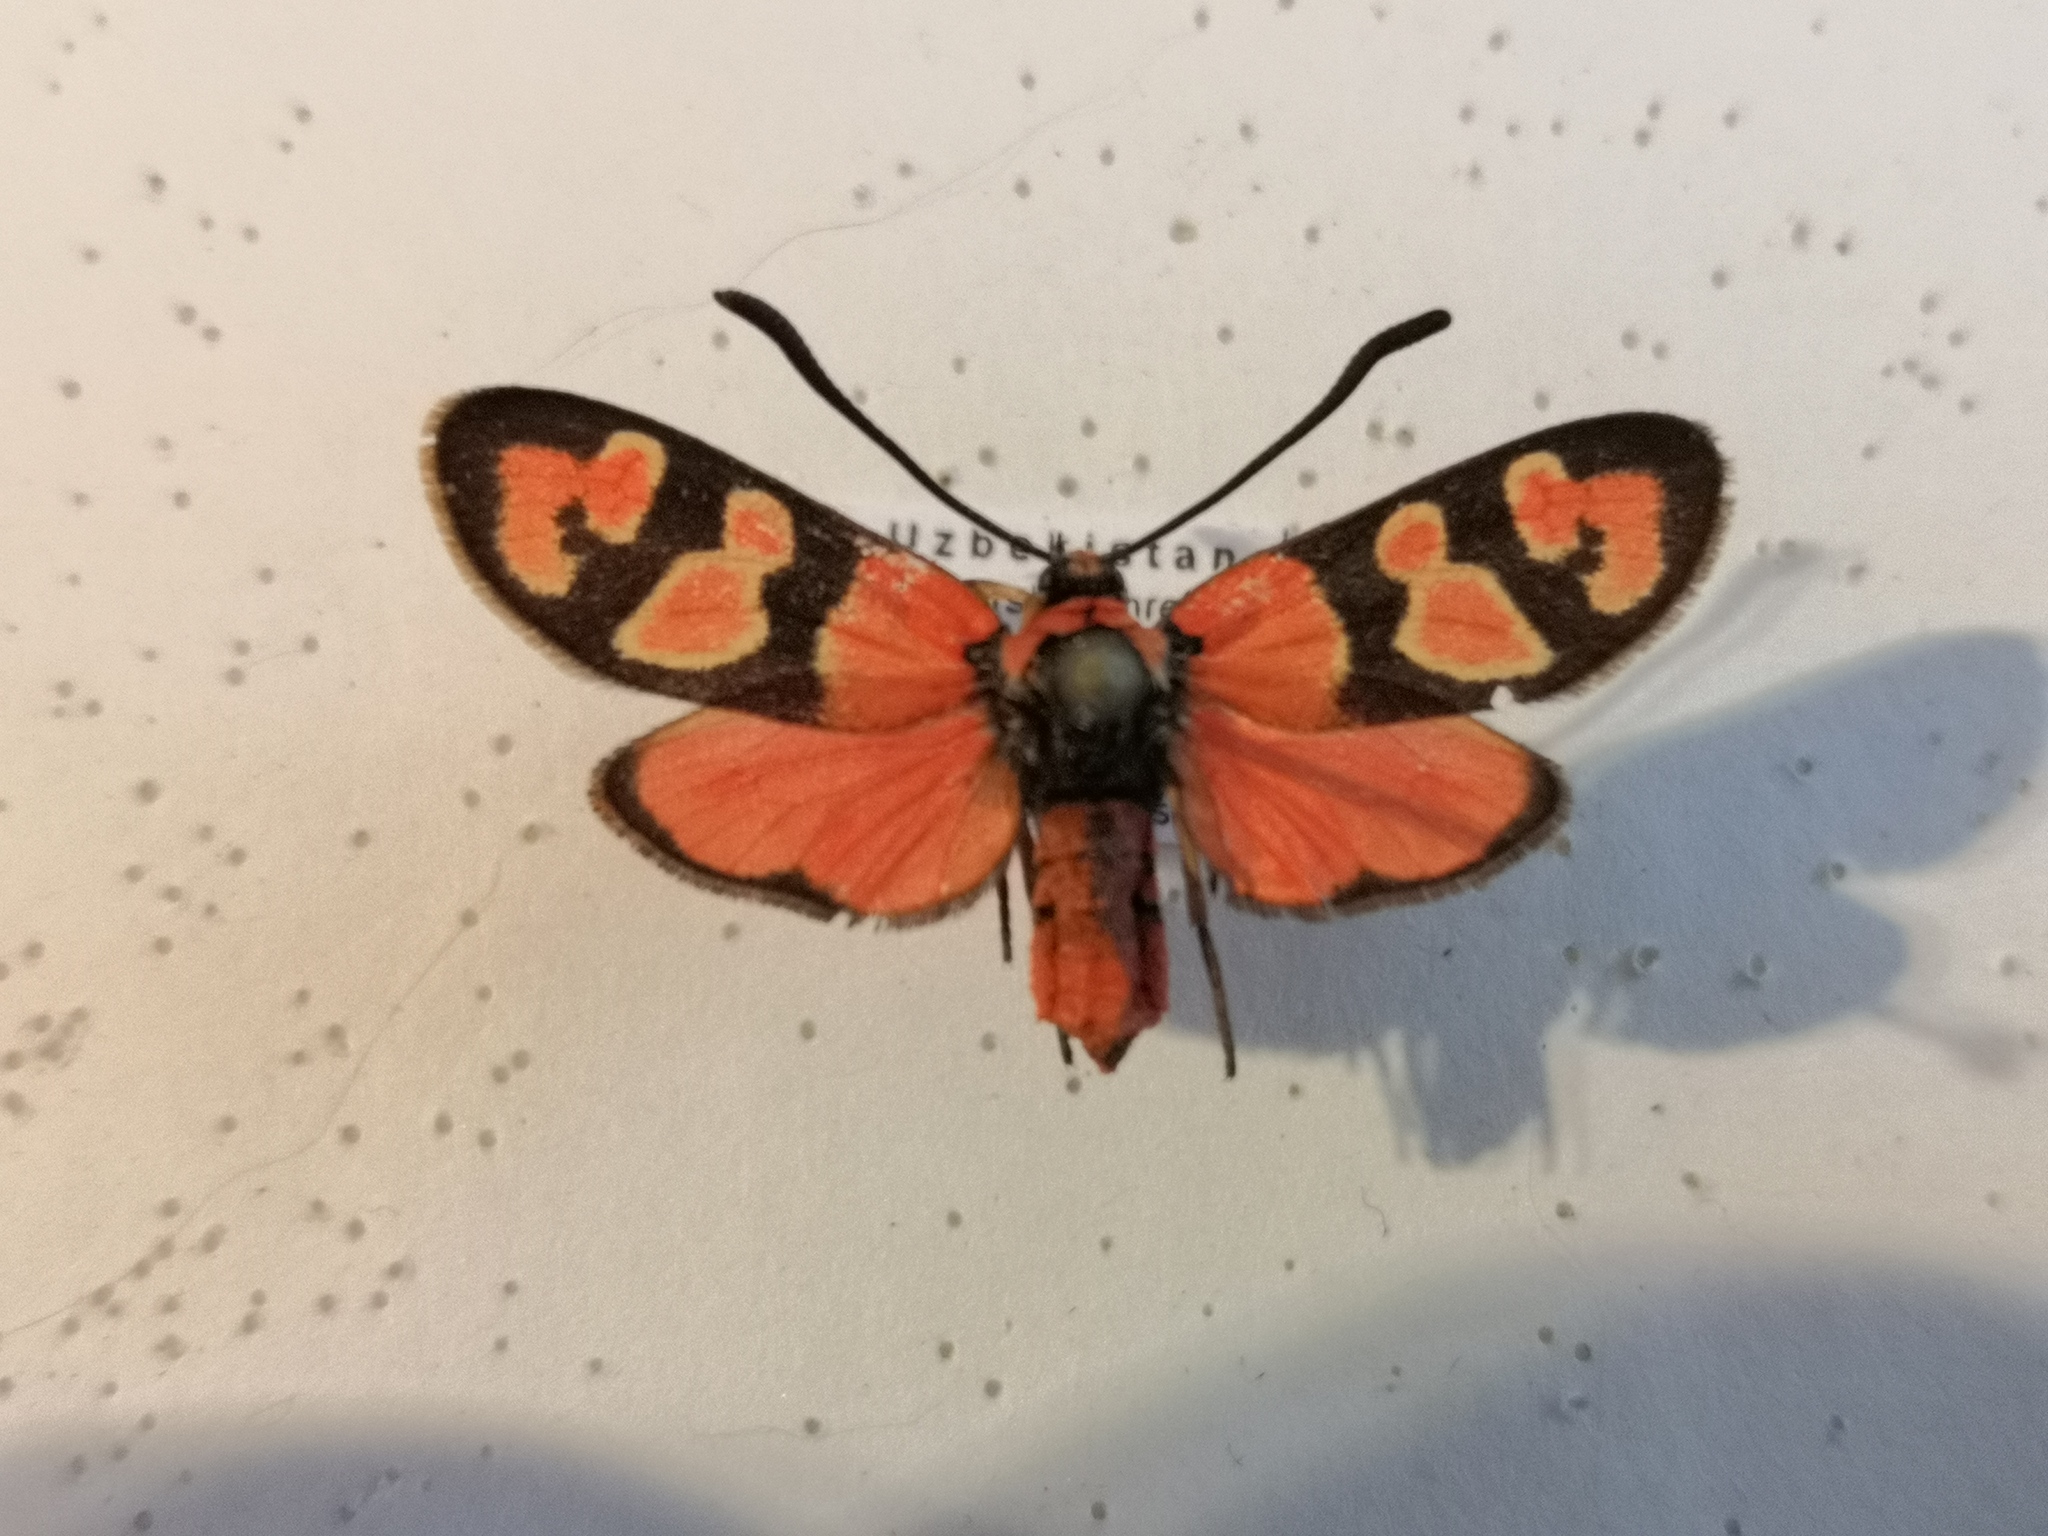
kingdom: Animalia
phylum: Arthropoda
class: Insecta
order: Lepidoptera
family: Zygaenidae
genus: Zygaena
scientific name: Zygaena cocandica
